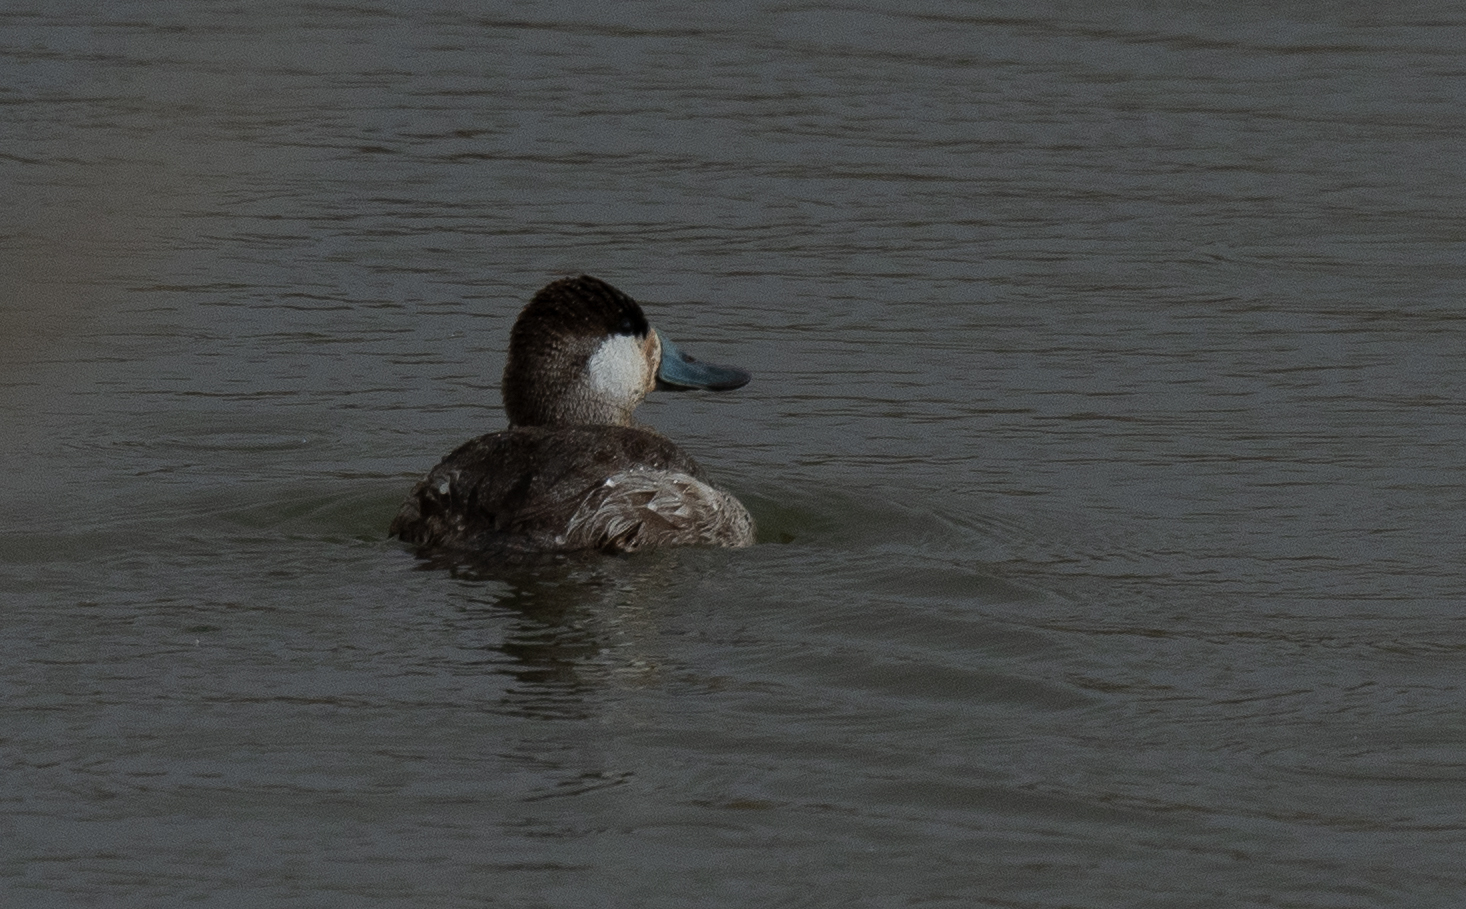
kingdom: Animalia
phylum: Chordata
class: Aves
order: Anseriformes
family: Anatidae
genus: Oxyura
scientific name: Oxyura jamaicensis
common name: Ruddy duck
